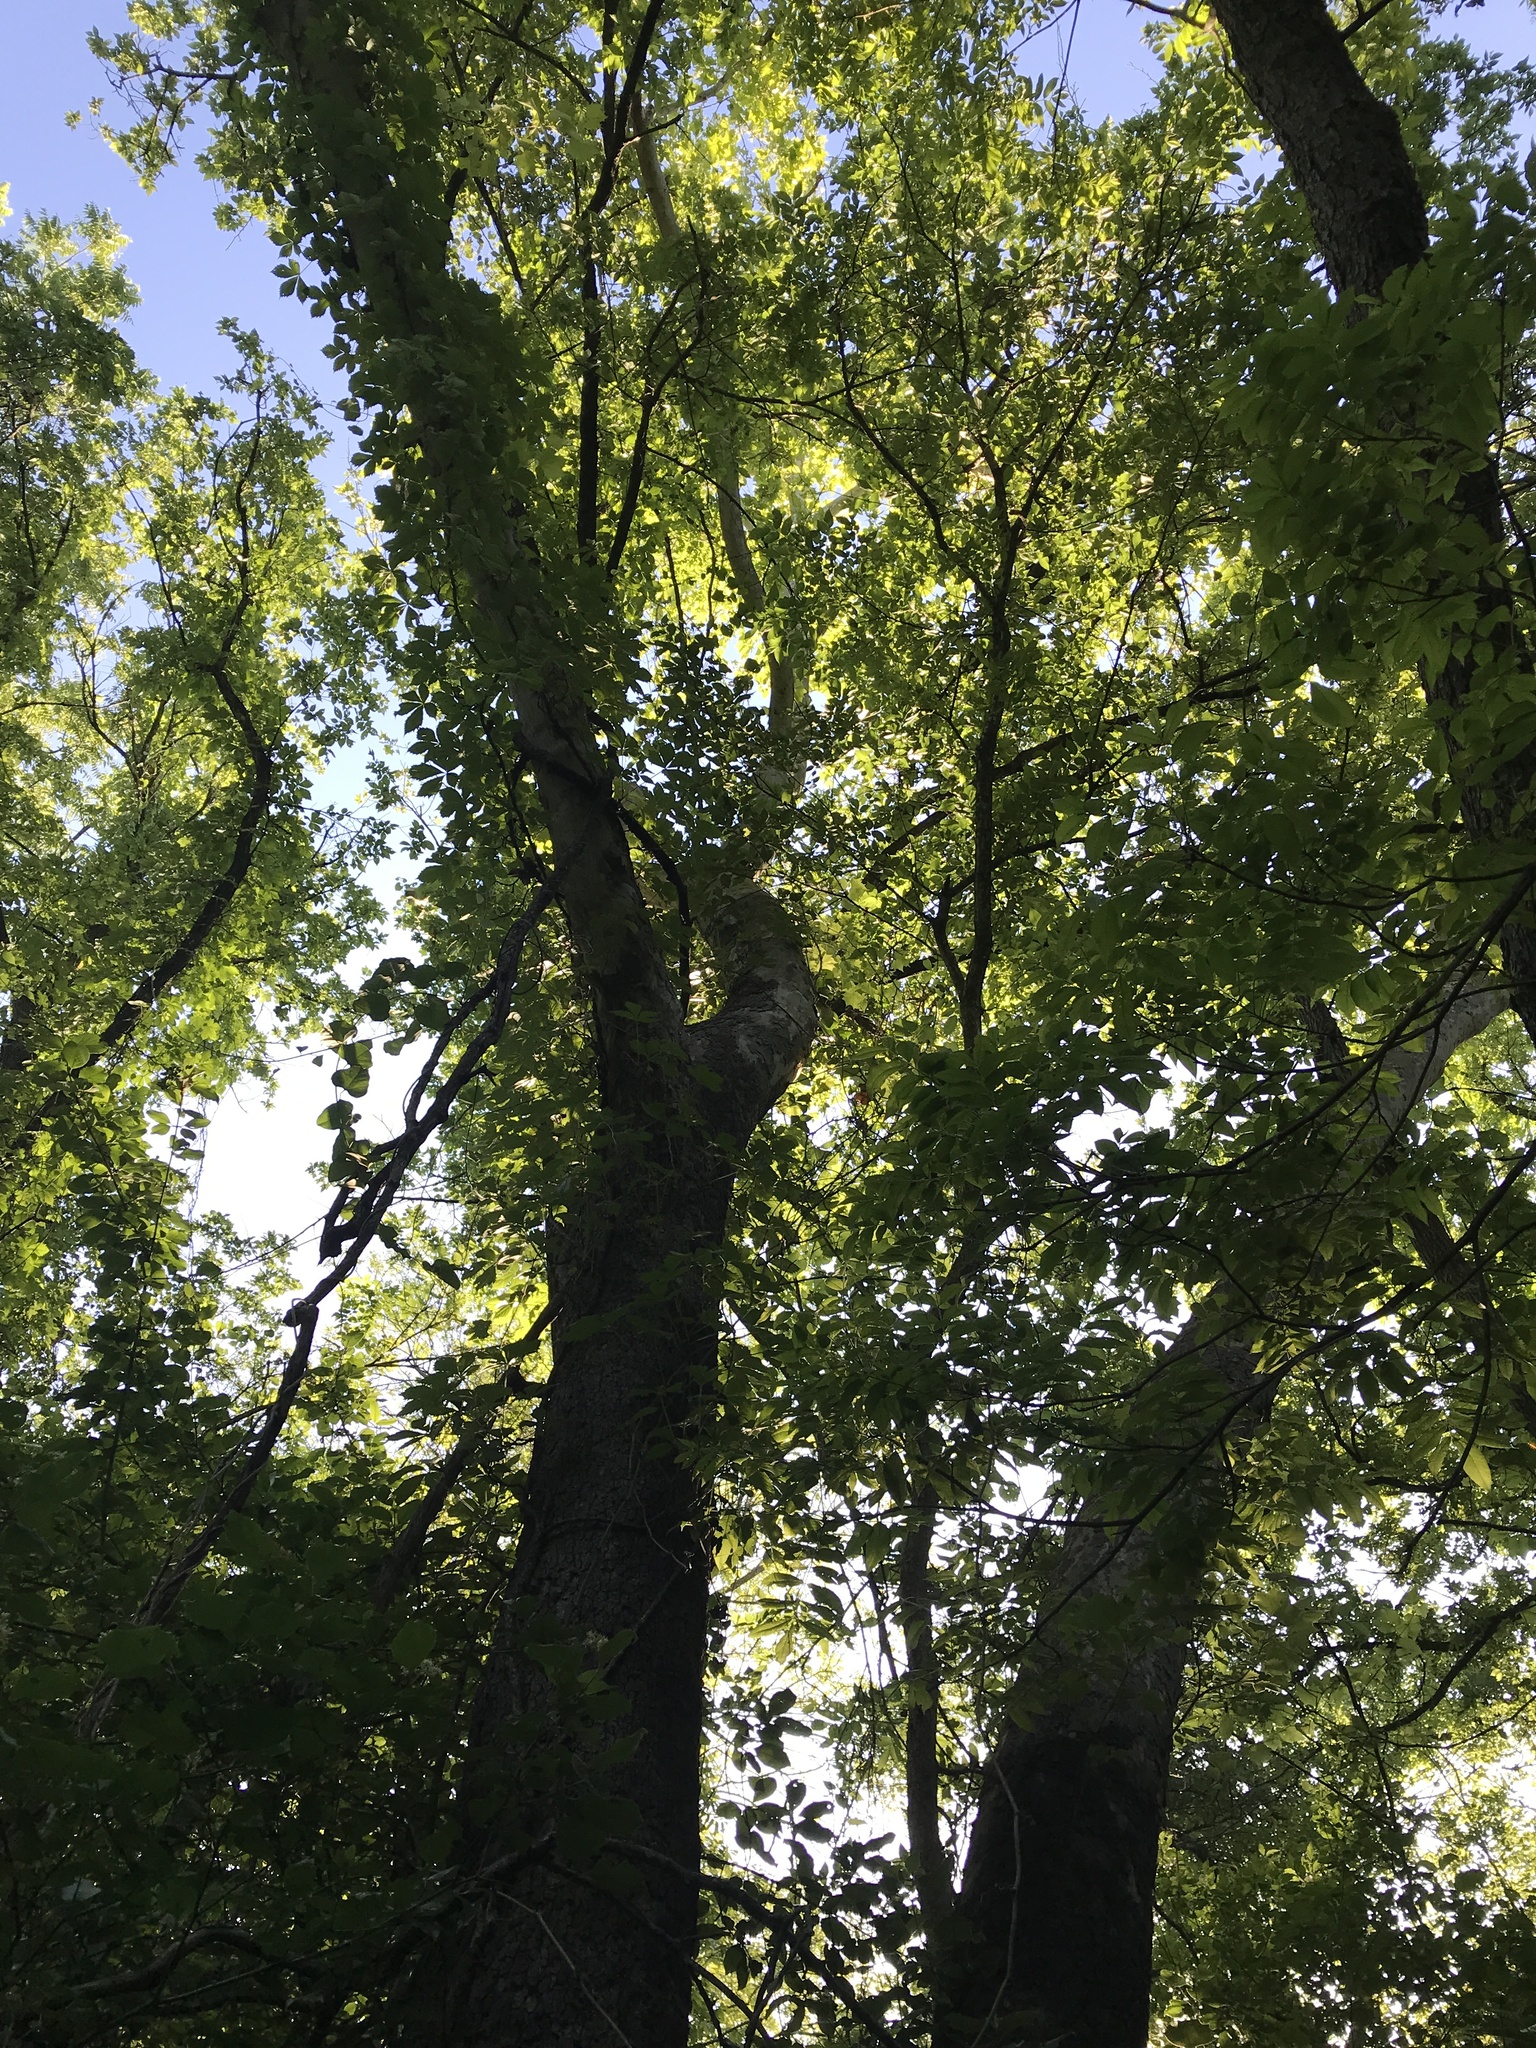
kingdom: Plantae
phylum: Tracheophyta
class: Magnoliopsida
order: Proteales
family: Platanaceae
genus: Platanus
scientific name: Platanus occidentalis
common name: American sycamore
